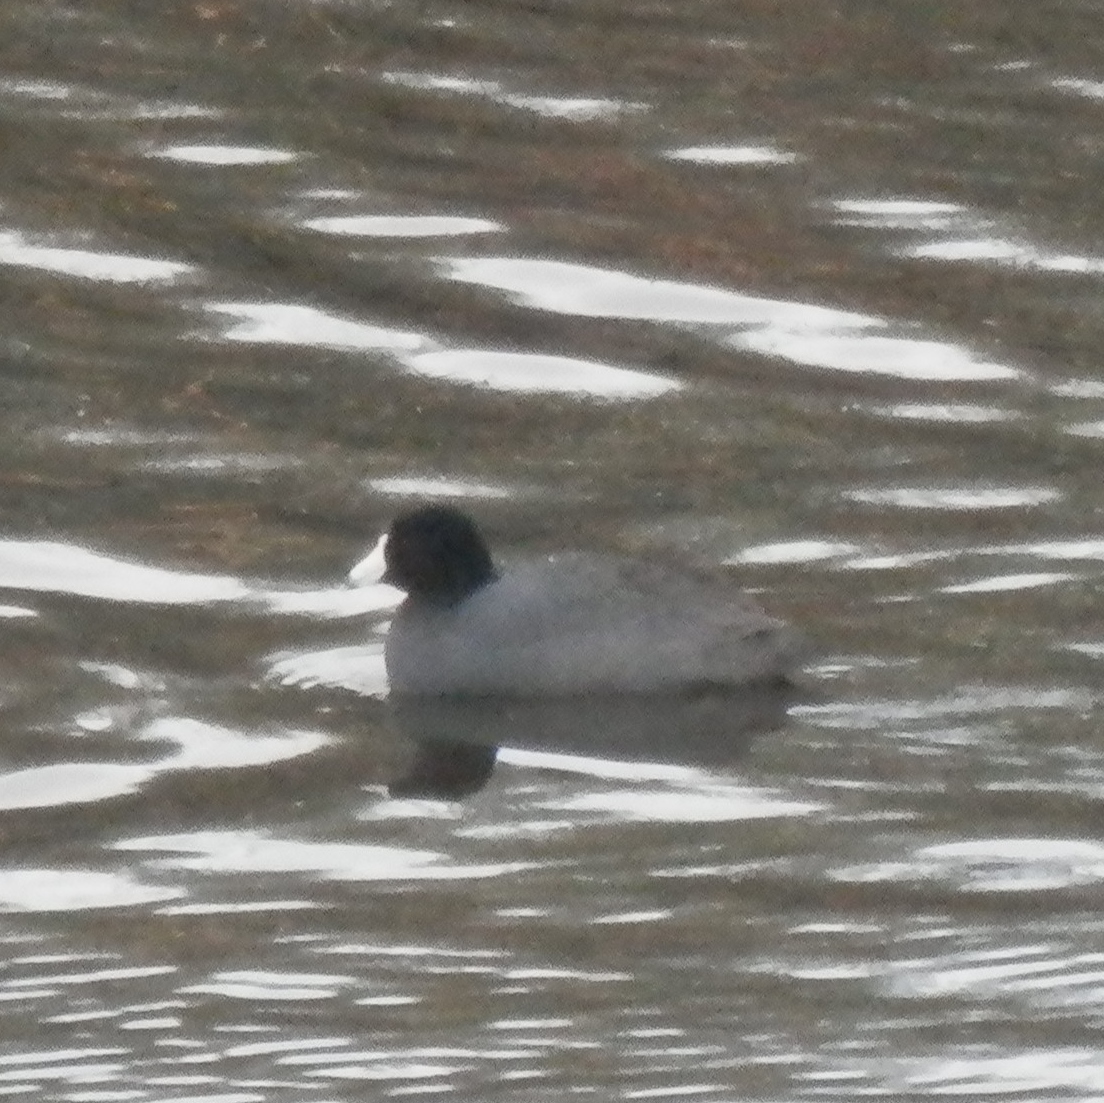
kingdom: Animalia
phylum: Chordata
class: Aves
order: Gruiformes
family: Rallidae
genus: Fulica
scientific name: Fulica americana
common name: American coot
